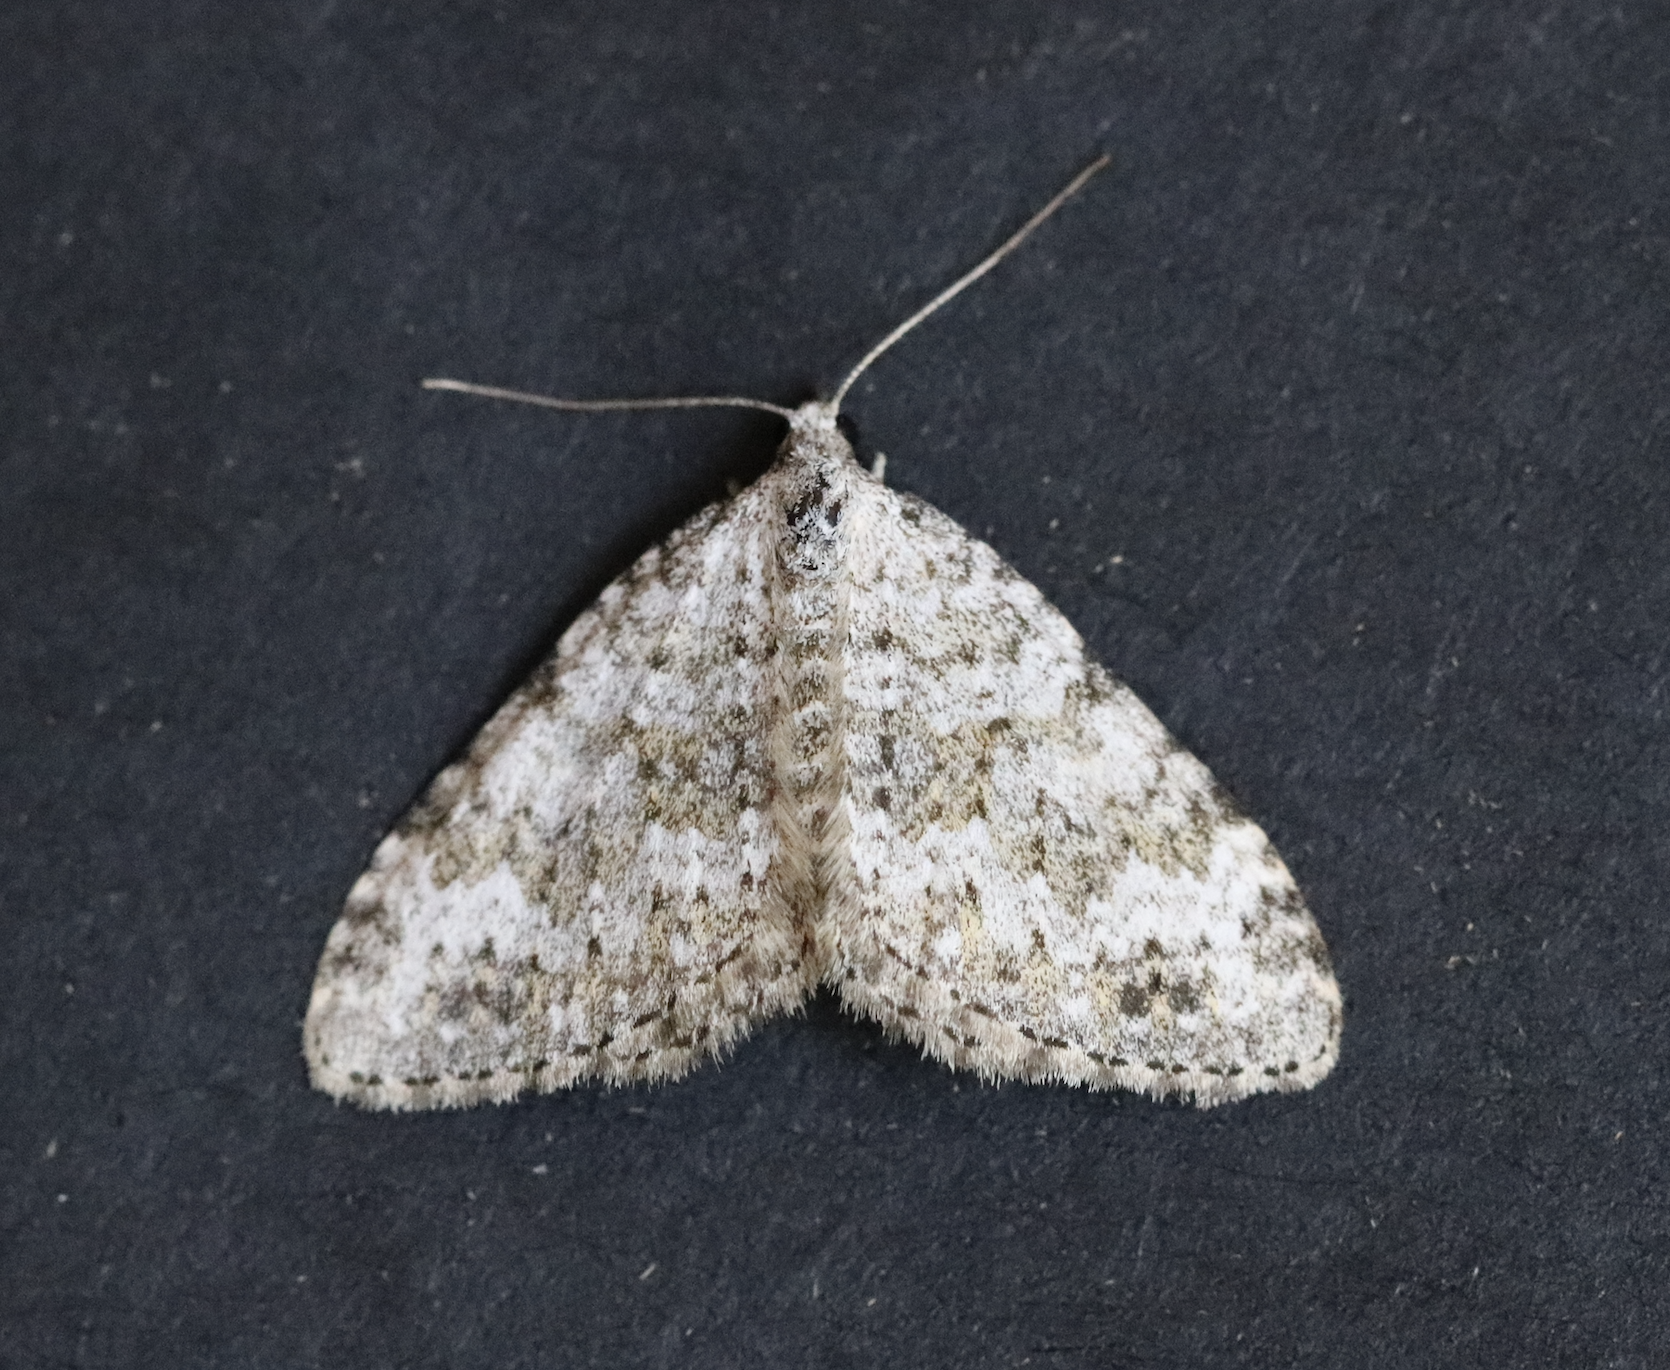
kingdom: Animalia
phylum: Arthropoda
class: Insecta
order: Lepidoptera
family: Geometridae
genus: Nebula
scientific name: Nebula salicata
